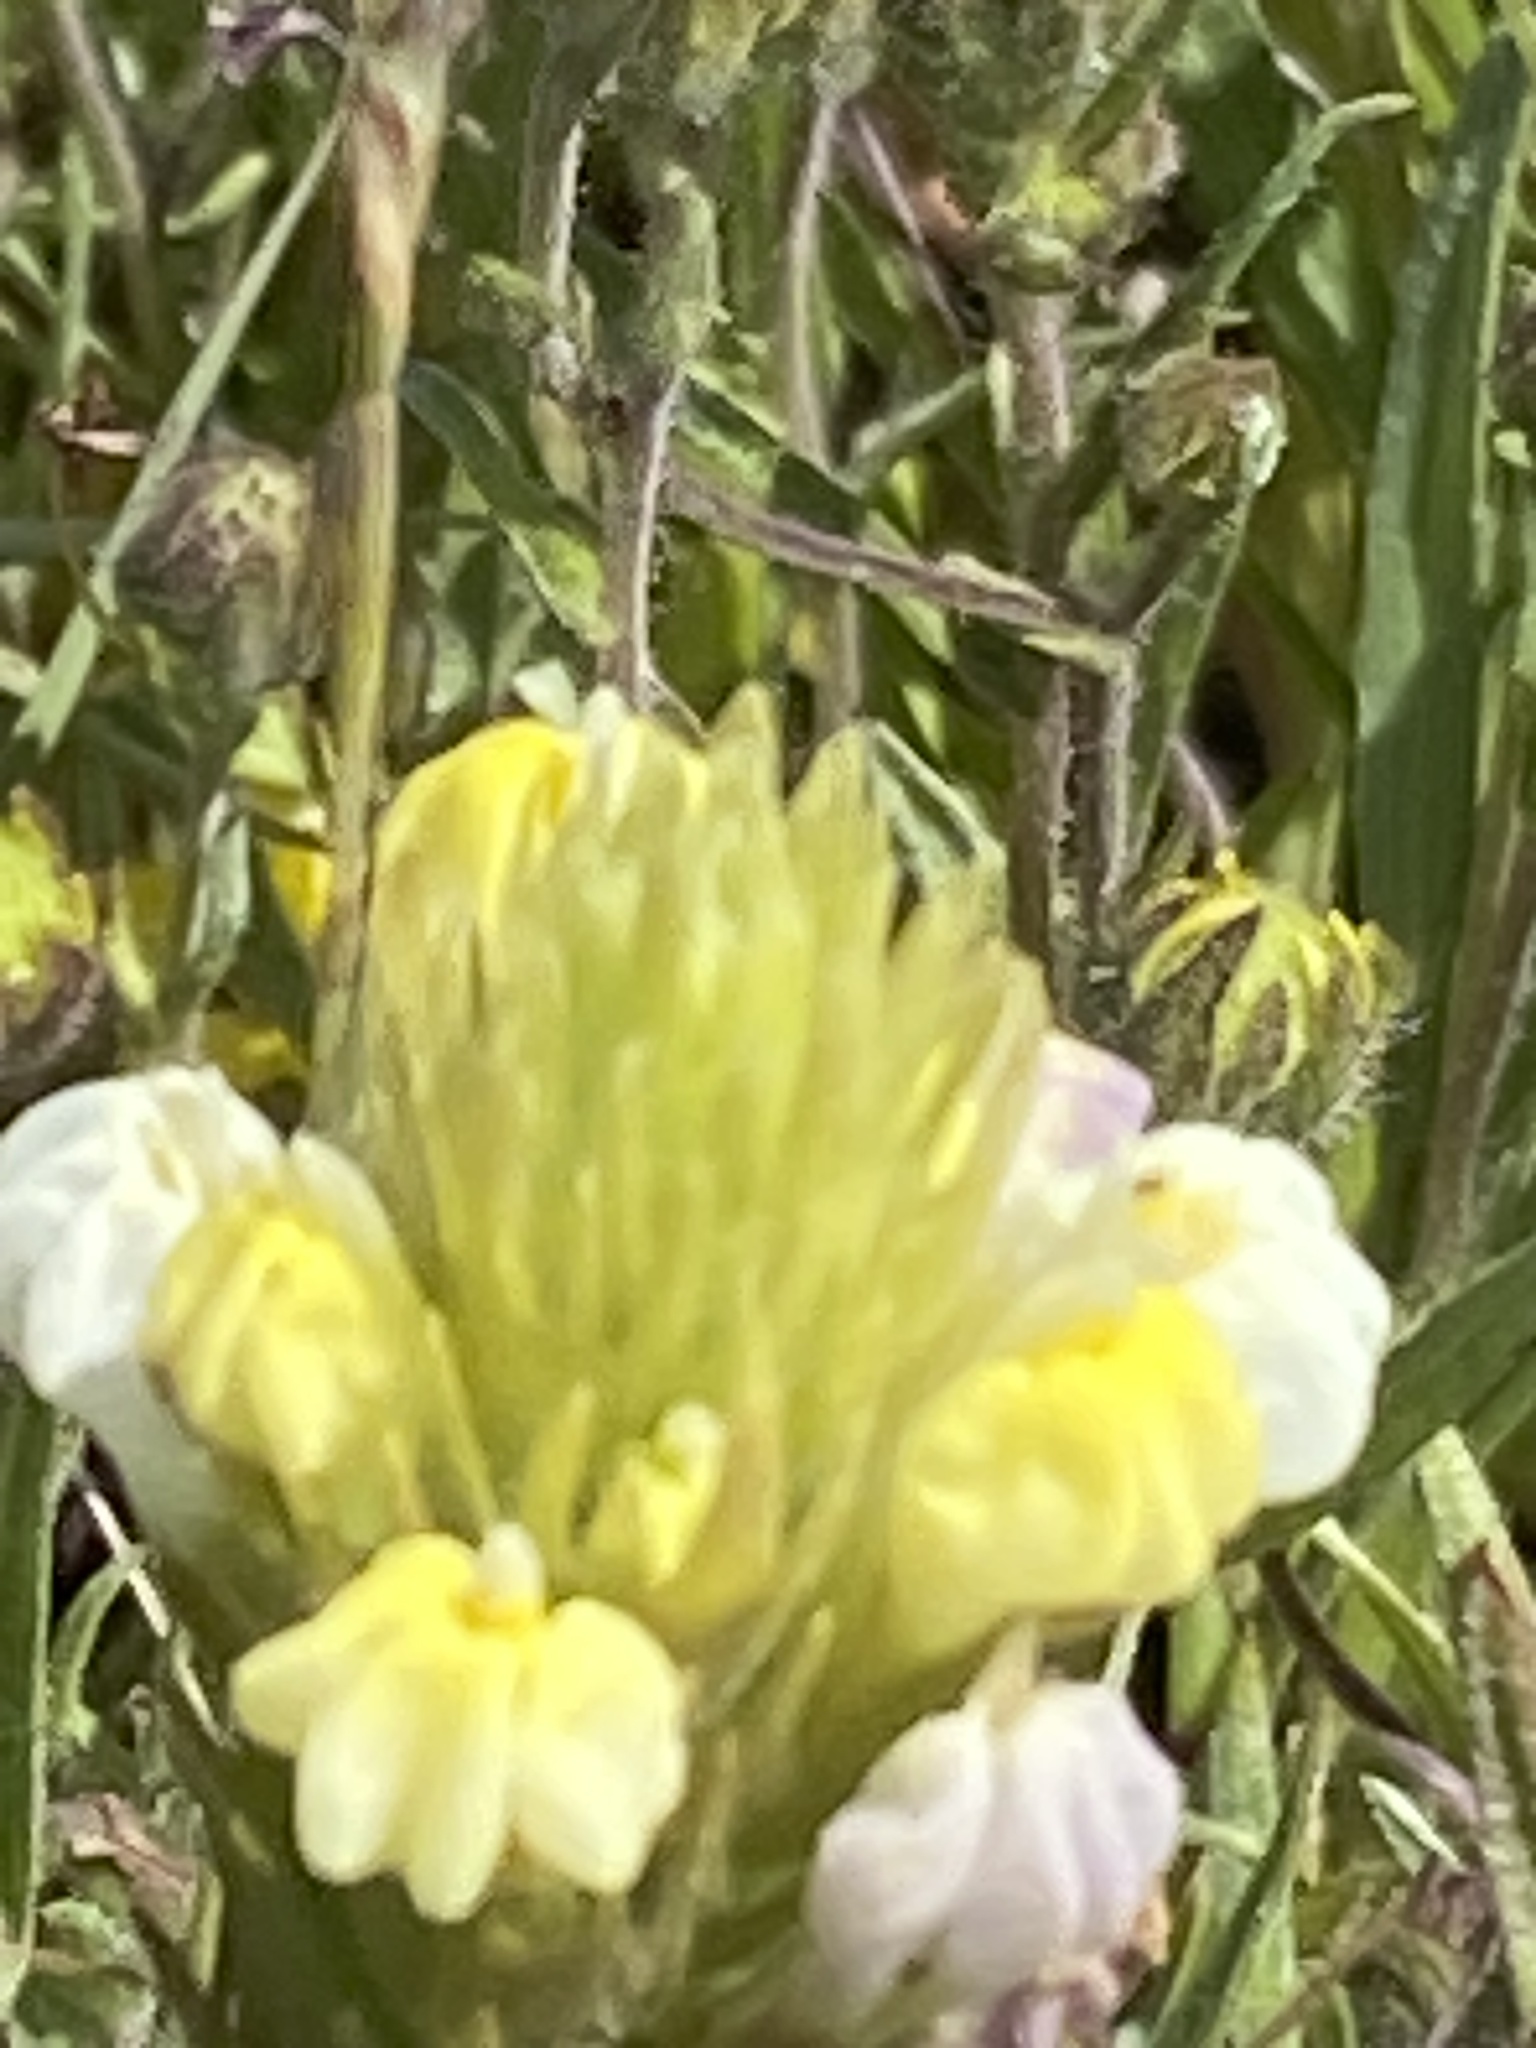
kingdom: Plantae
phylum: Tracheophyta
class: Magnoliopsida
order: Lamiales
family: Orobanchaceae
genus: Castilleja
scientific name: Castilleja rubicundula
